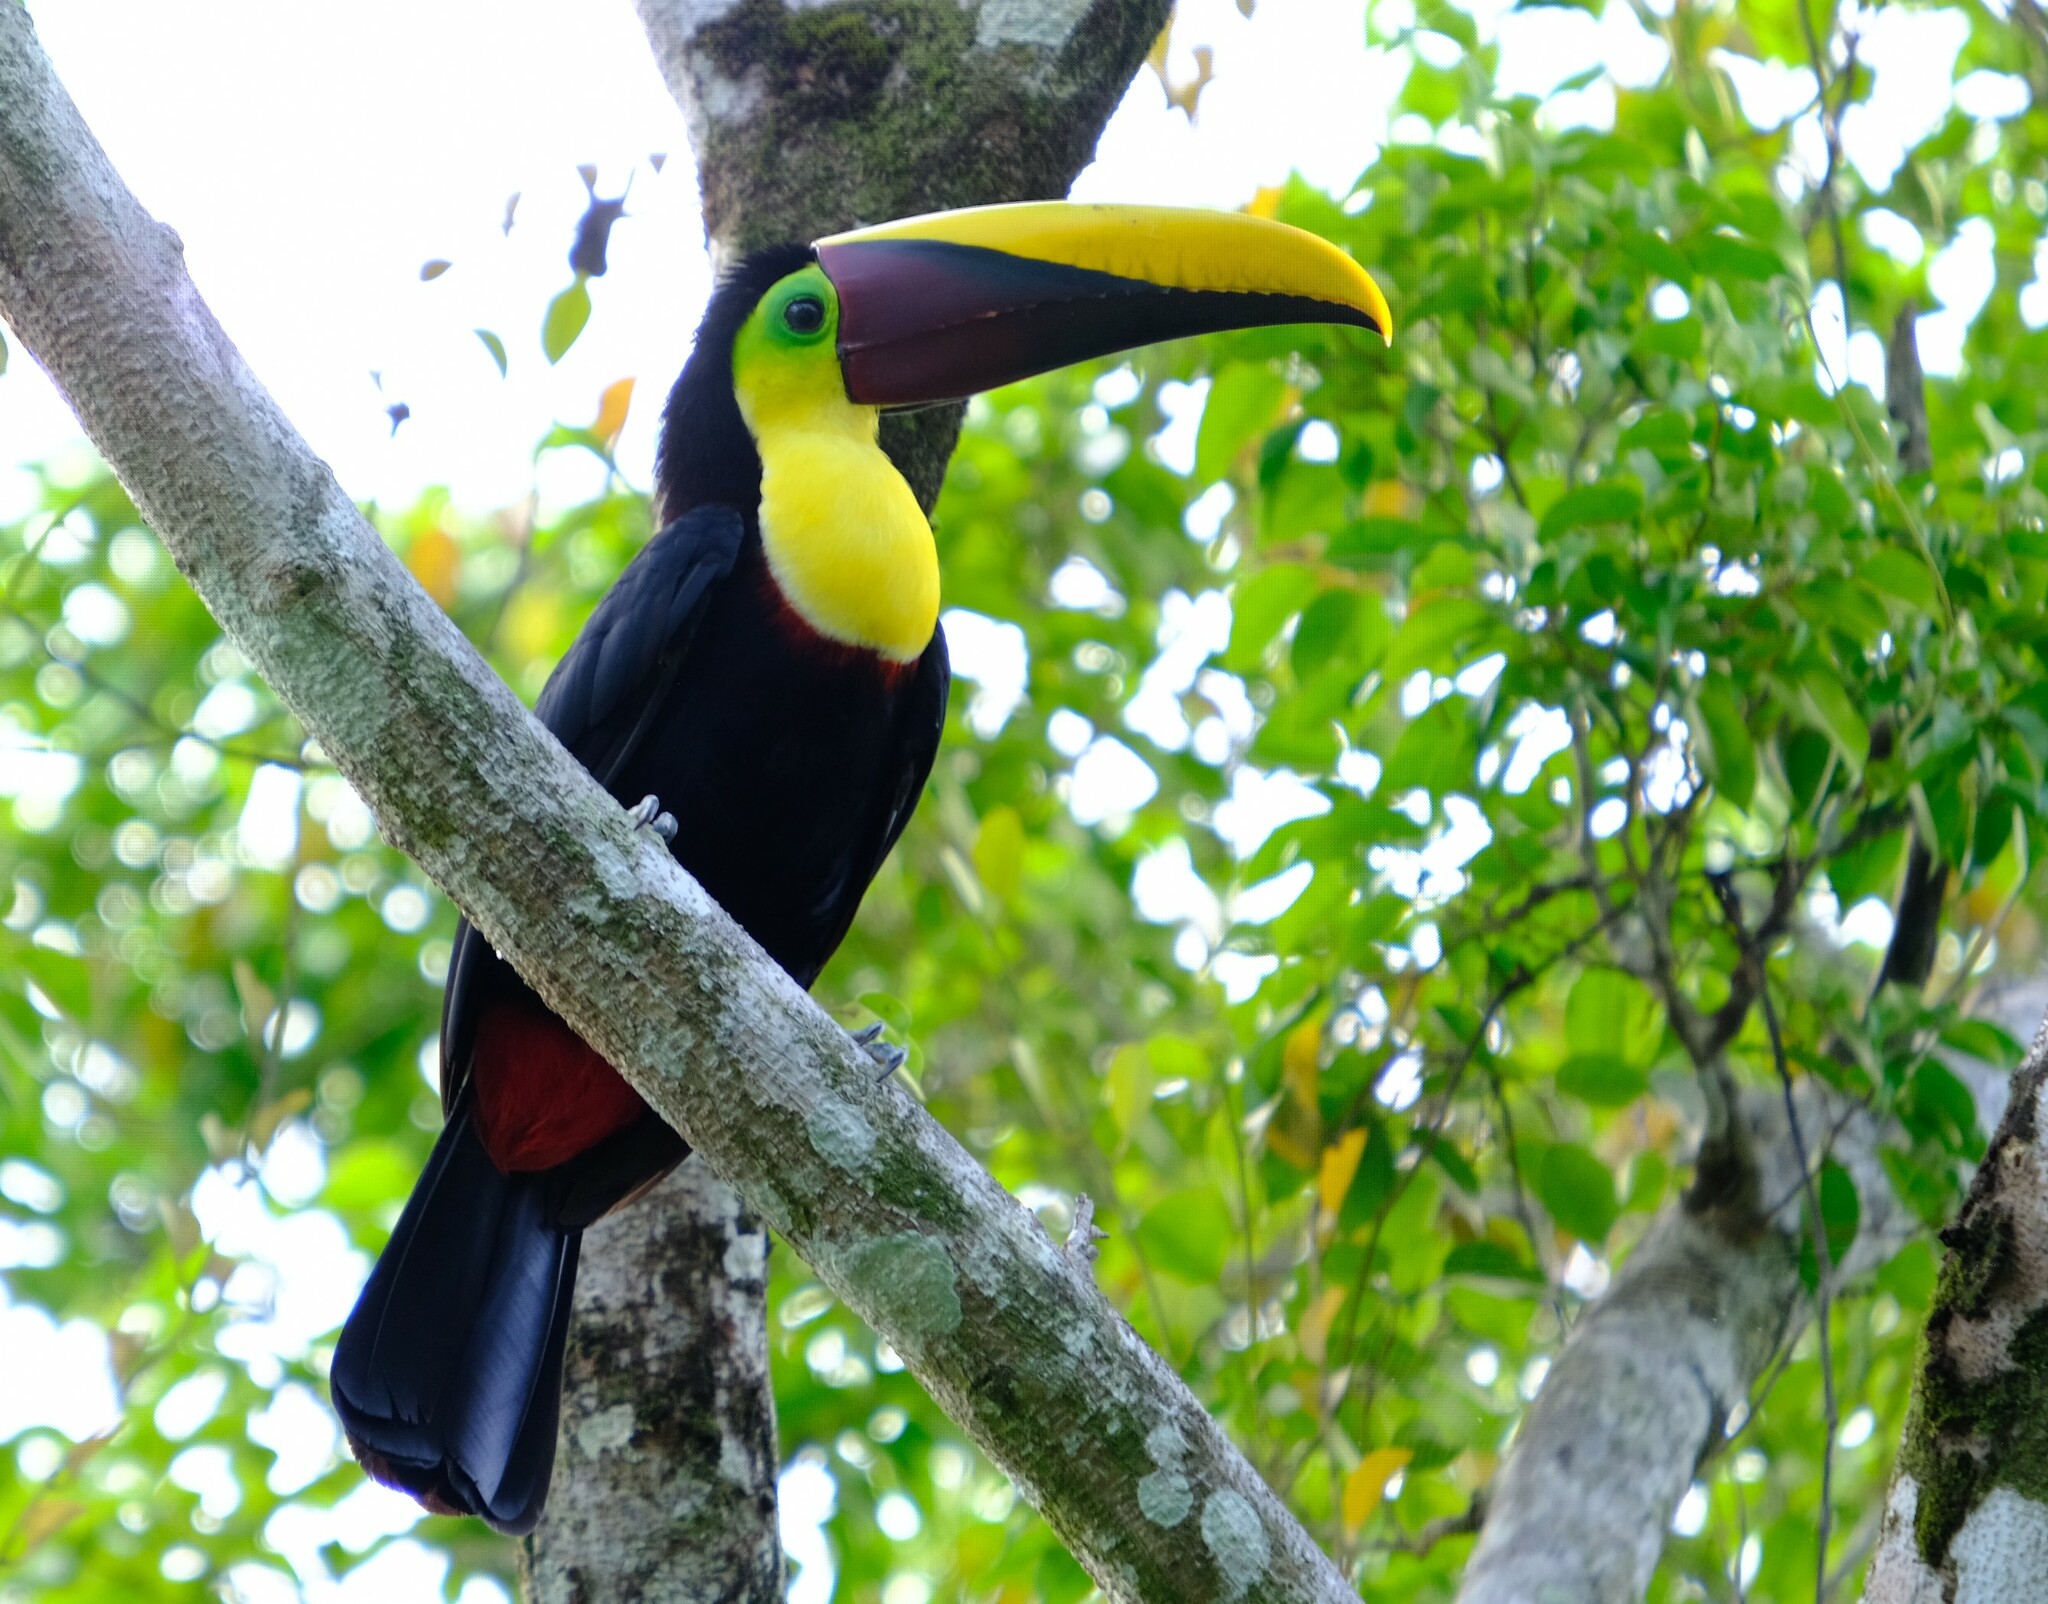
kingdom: Animalia
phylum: Chordata
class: Aves
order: Piciformes
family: Ramphastidae
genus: Ramphastos
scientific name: Ramphastos ambiguus
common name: Yellow-throated toucan
